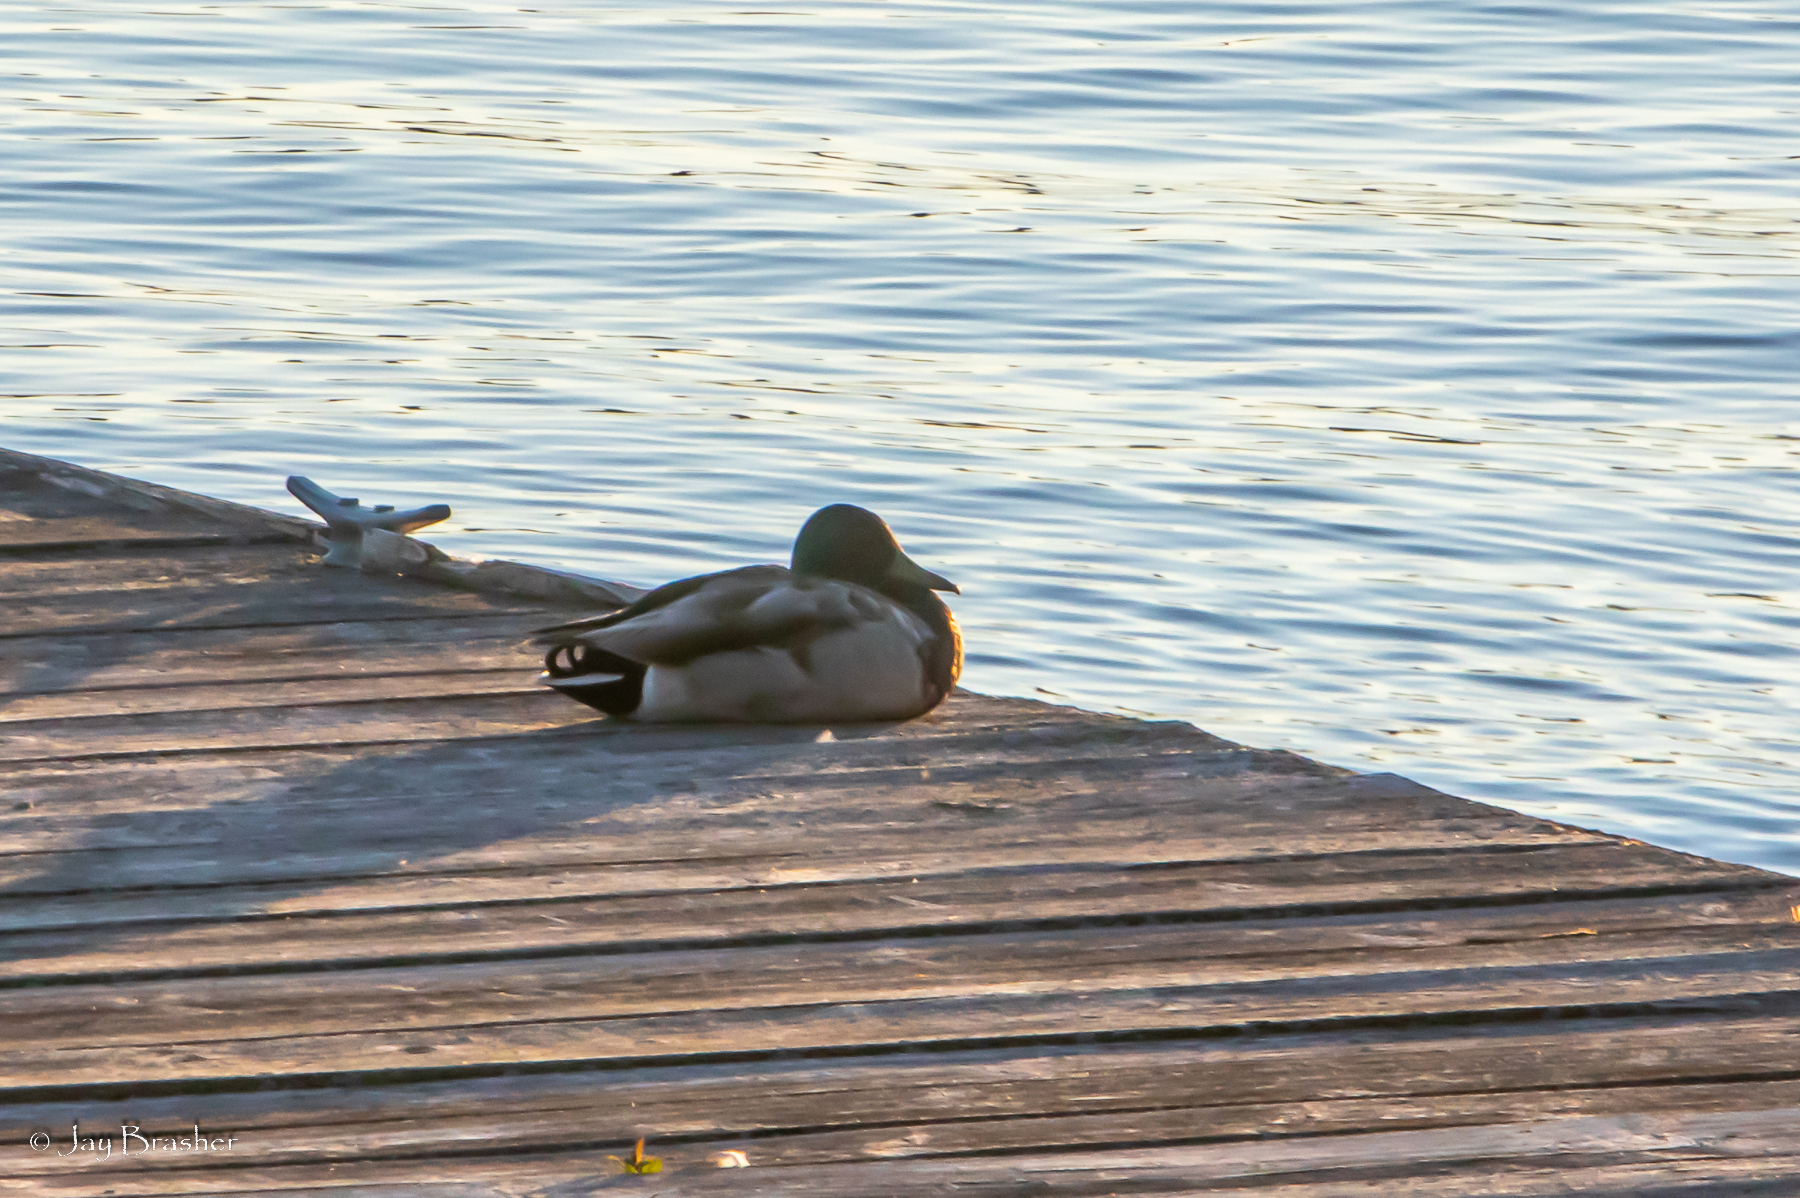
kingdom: Animalia
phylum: Chordata
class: Aves
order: Anseriformes
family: Anatidae
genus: Anas
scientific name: Anas platyrhynchos
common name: Mallard
